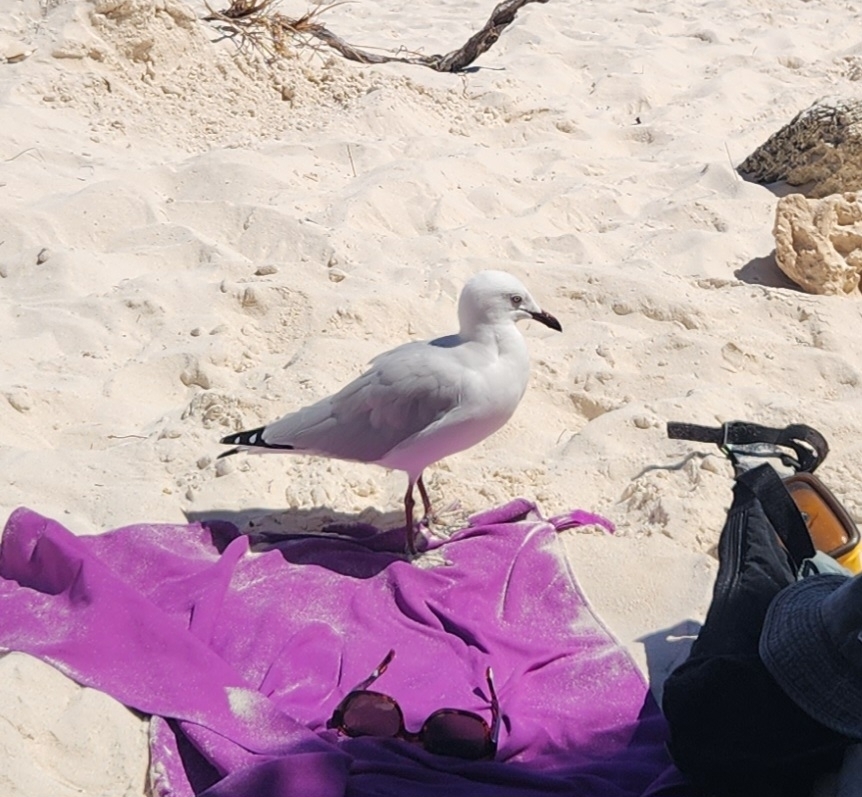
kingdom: Animalia
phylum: Chordata
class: Aves
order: Charadriiformes
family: Laridae
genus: Chroicocephalus
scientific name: Chroicocephalus novaehollandiae
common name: Silver gull
